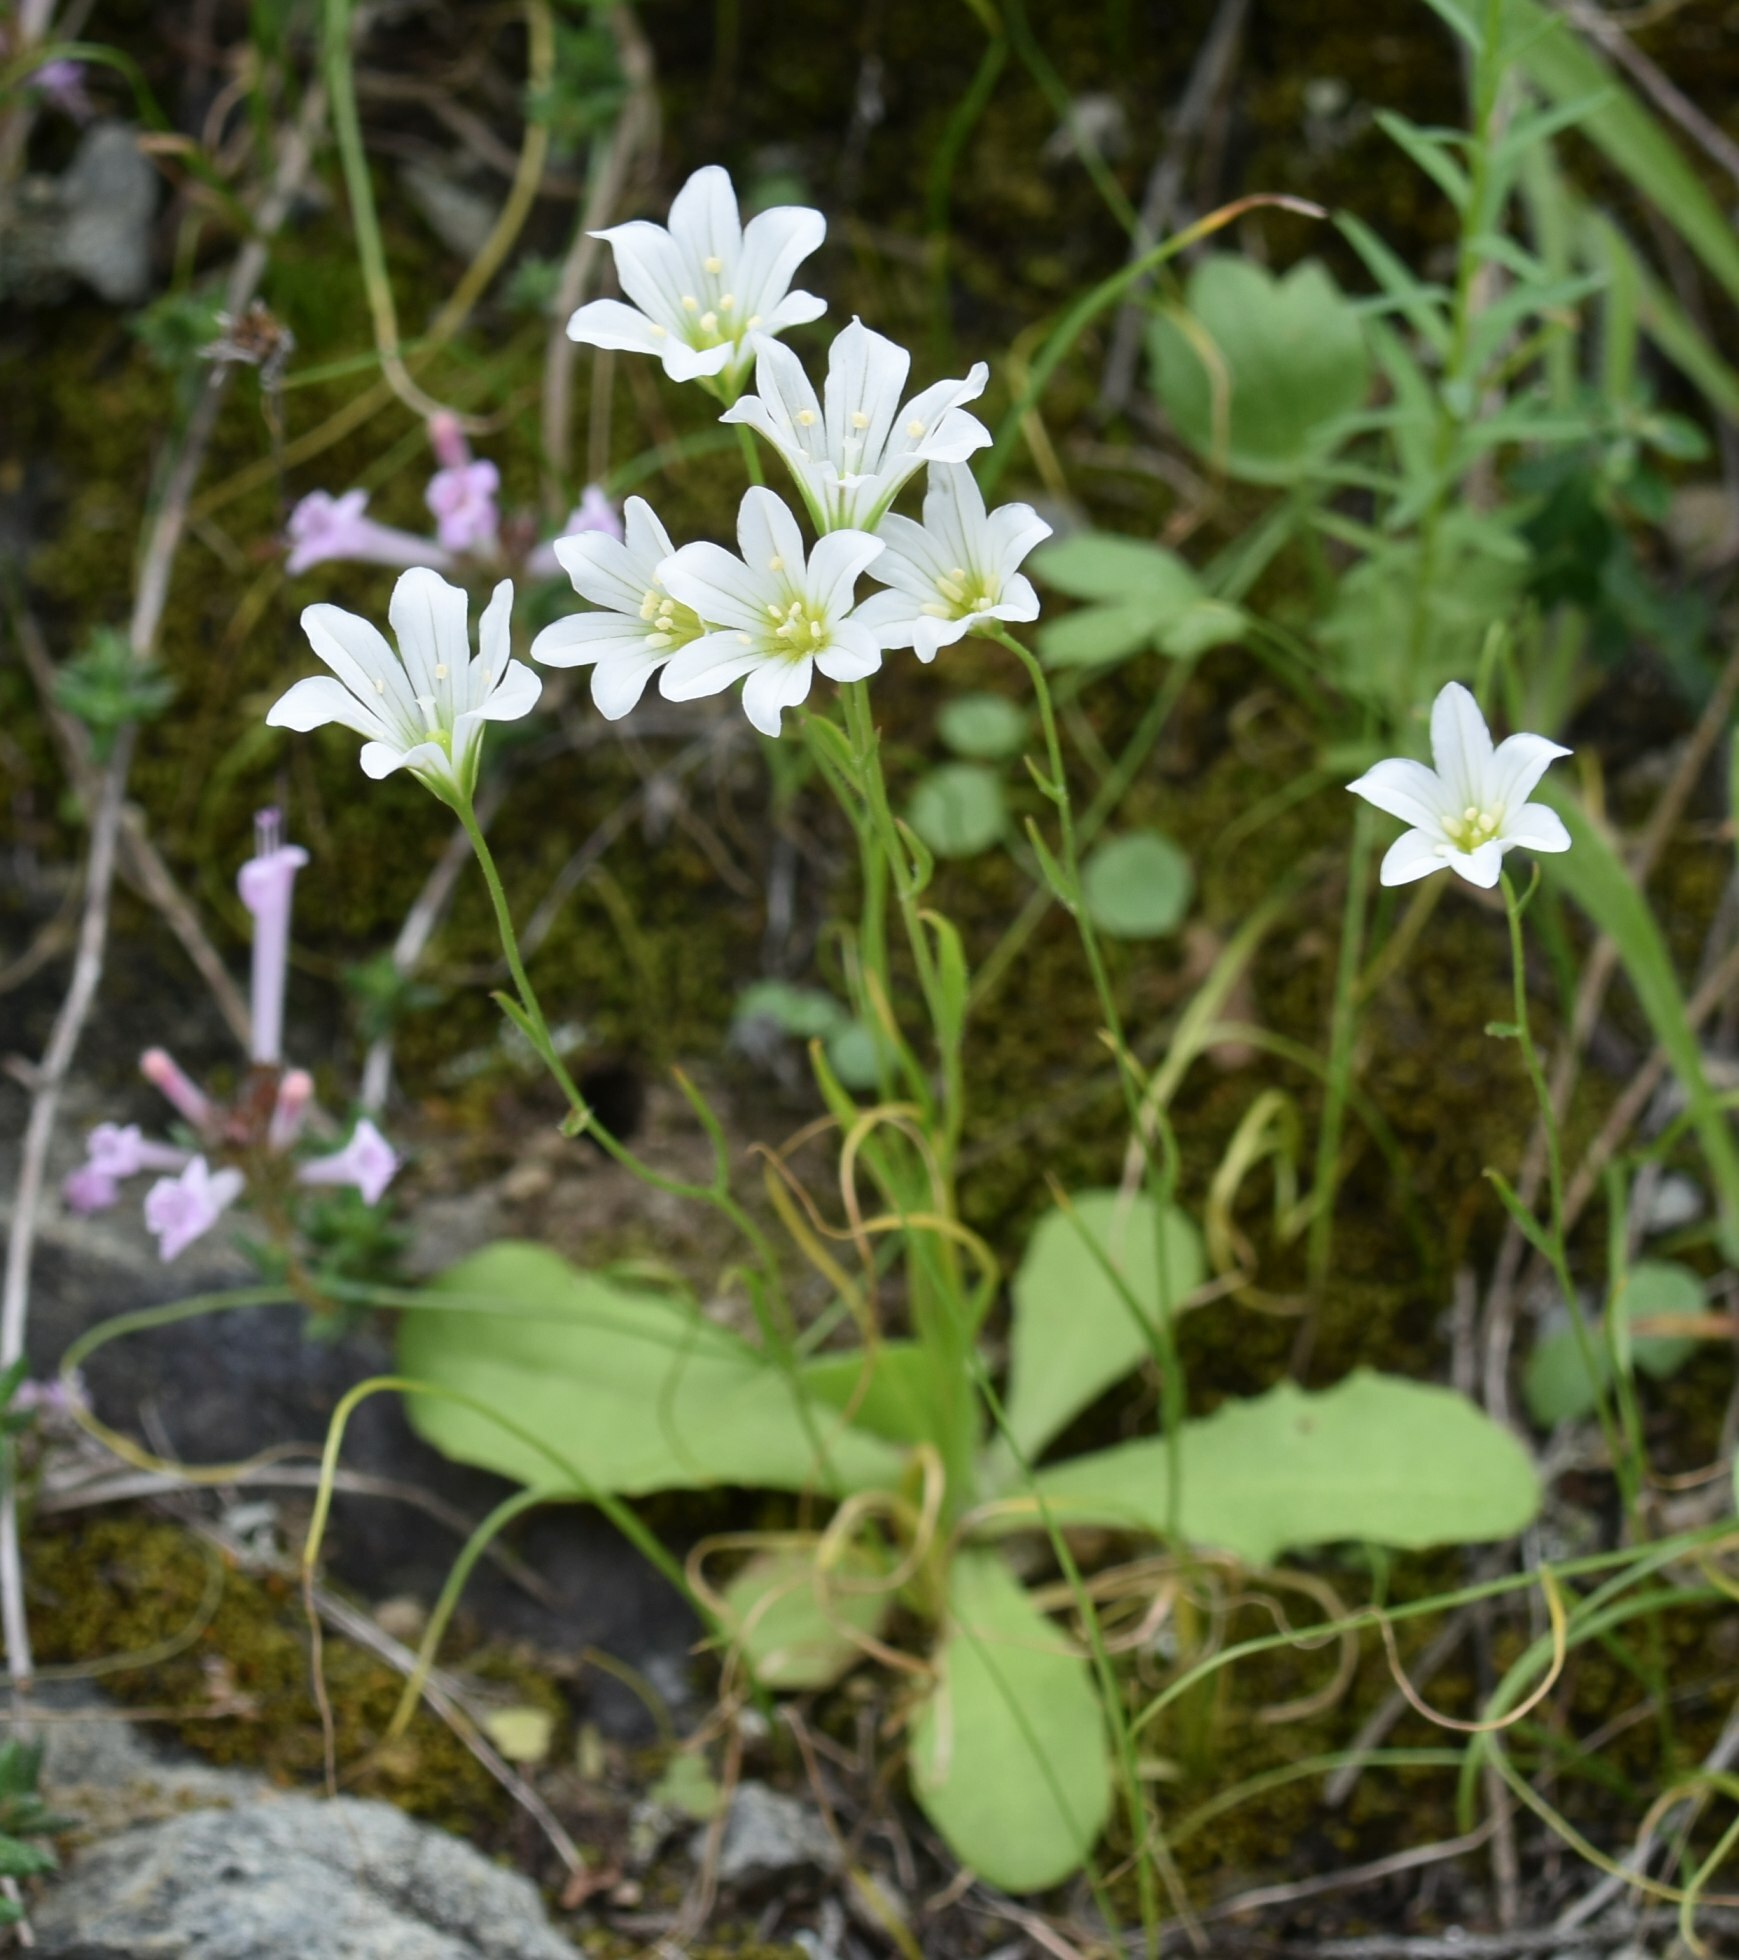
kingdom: Plantae
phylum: Tracheophyta
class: Liliopsida
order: Liliales
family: Liliaceae
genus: Gagea
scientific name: Gagea graeca
